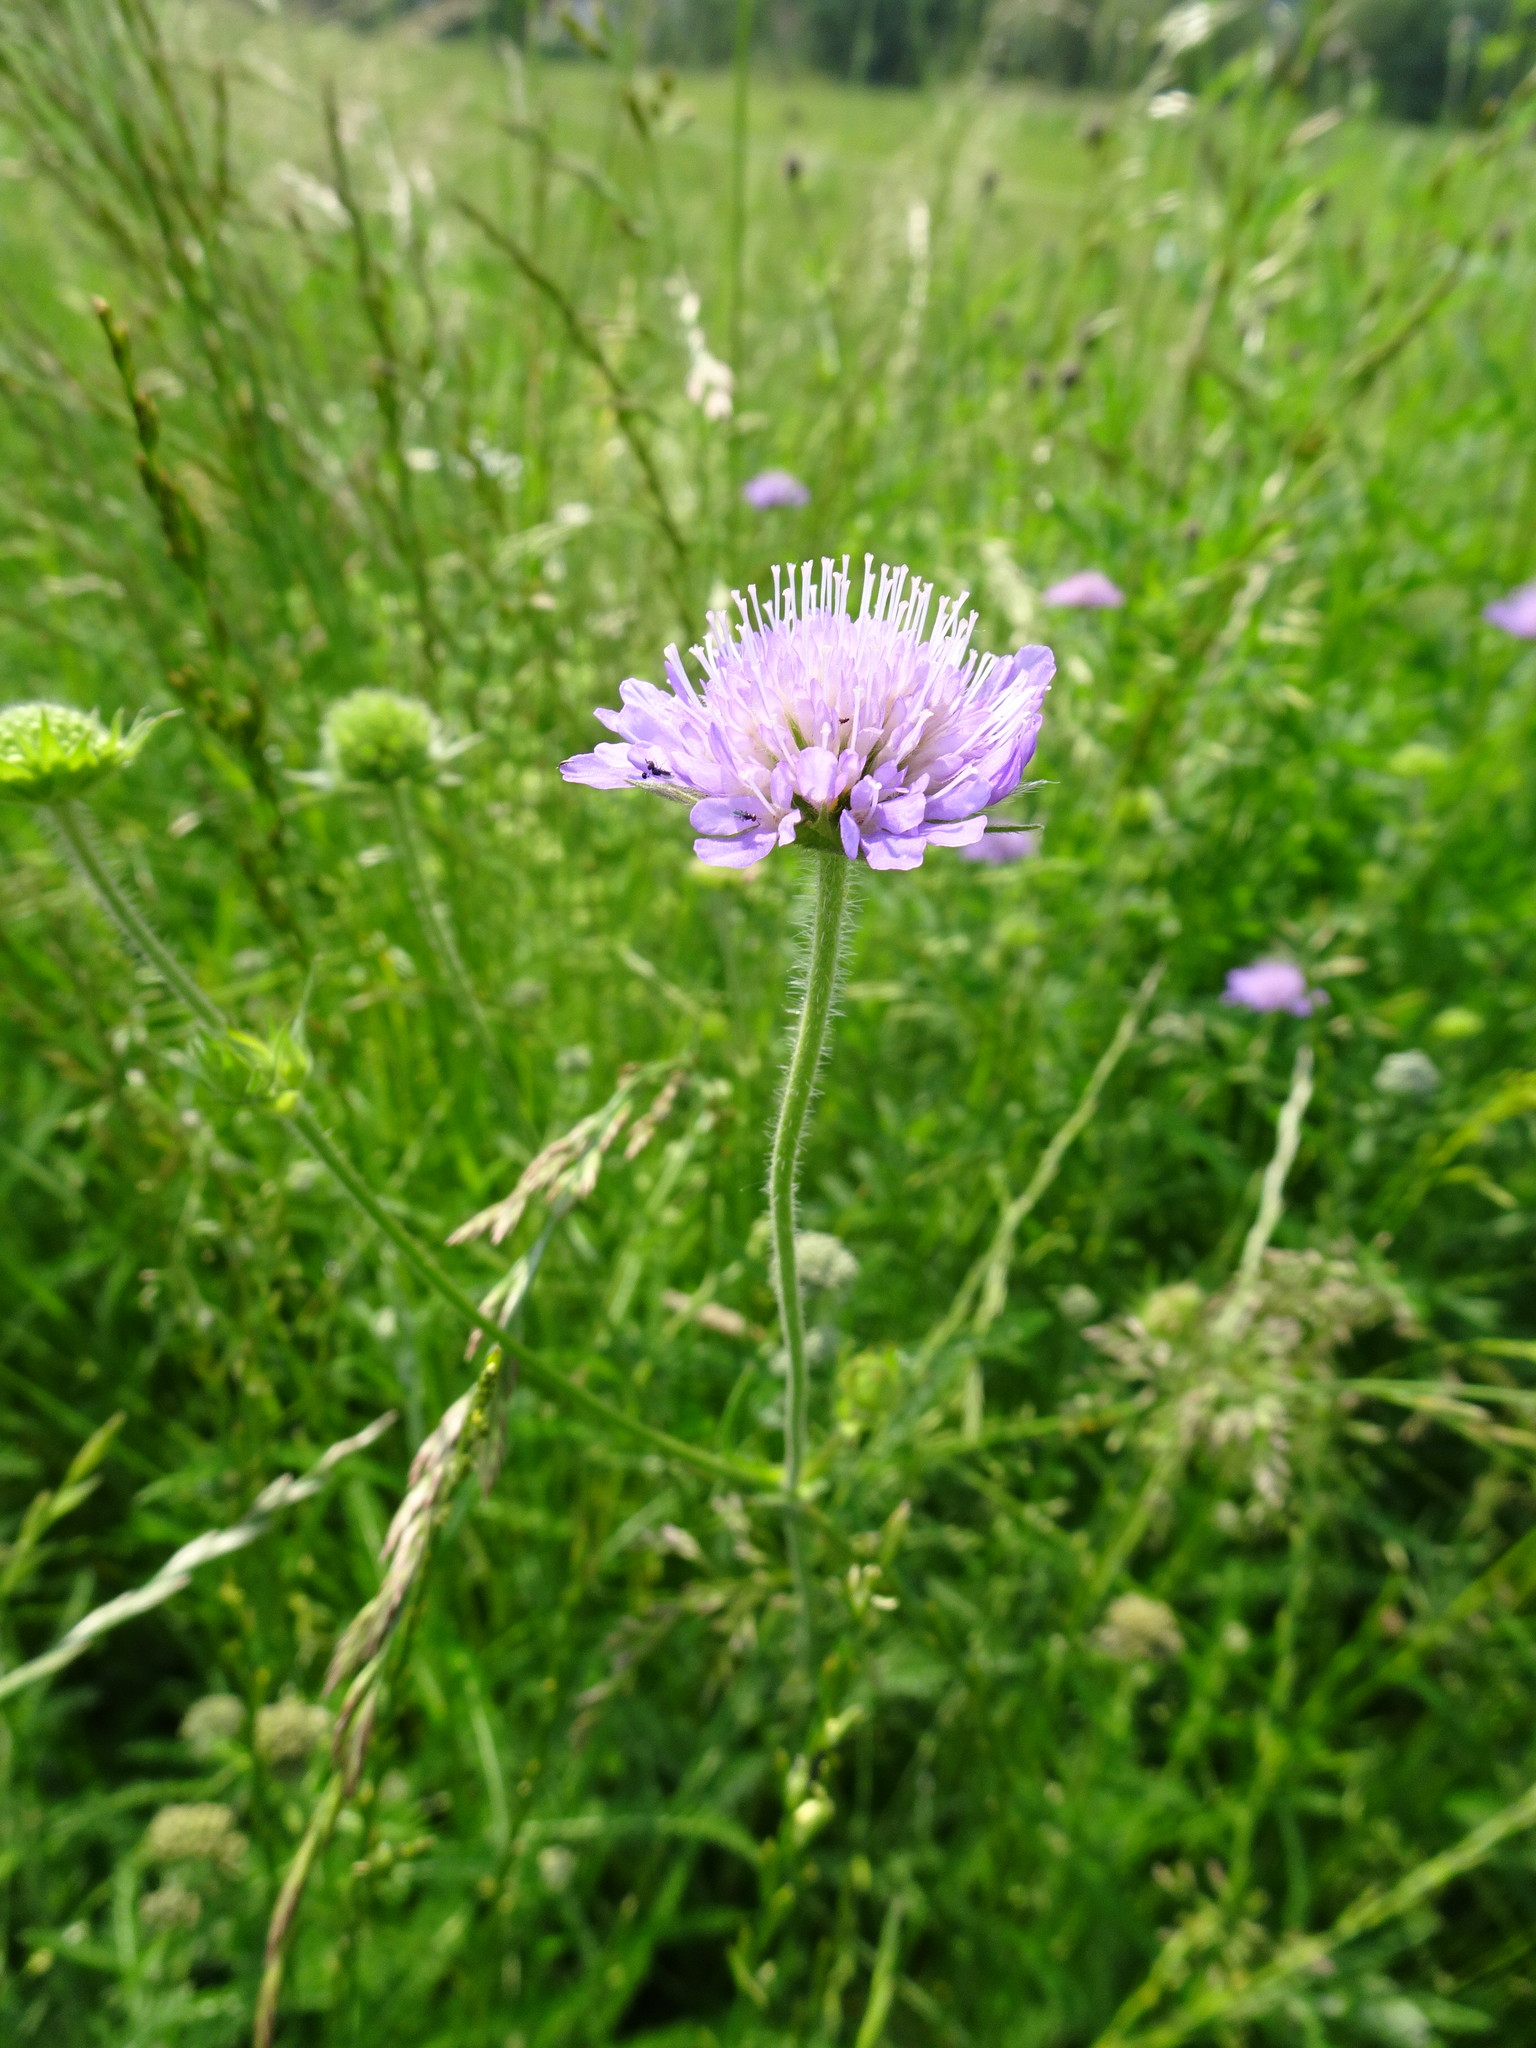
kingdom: Plantae
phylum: Tracheophyta
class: Magnoliopsida
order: Dipsacales
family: Caprifoliaceae
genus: Knautia
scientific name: Knautia arvensis
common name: Field scabiosa
